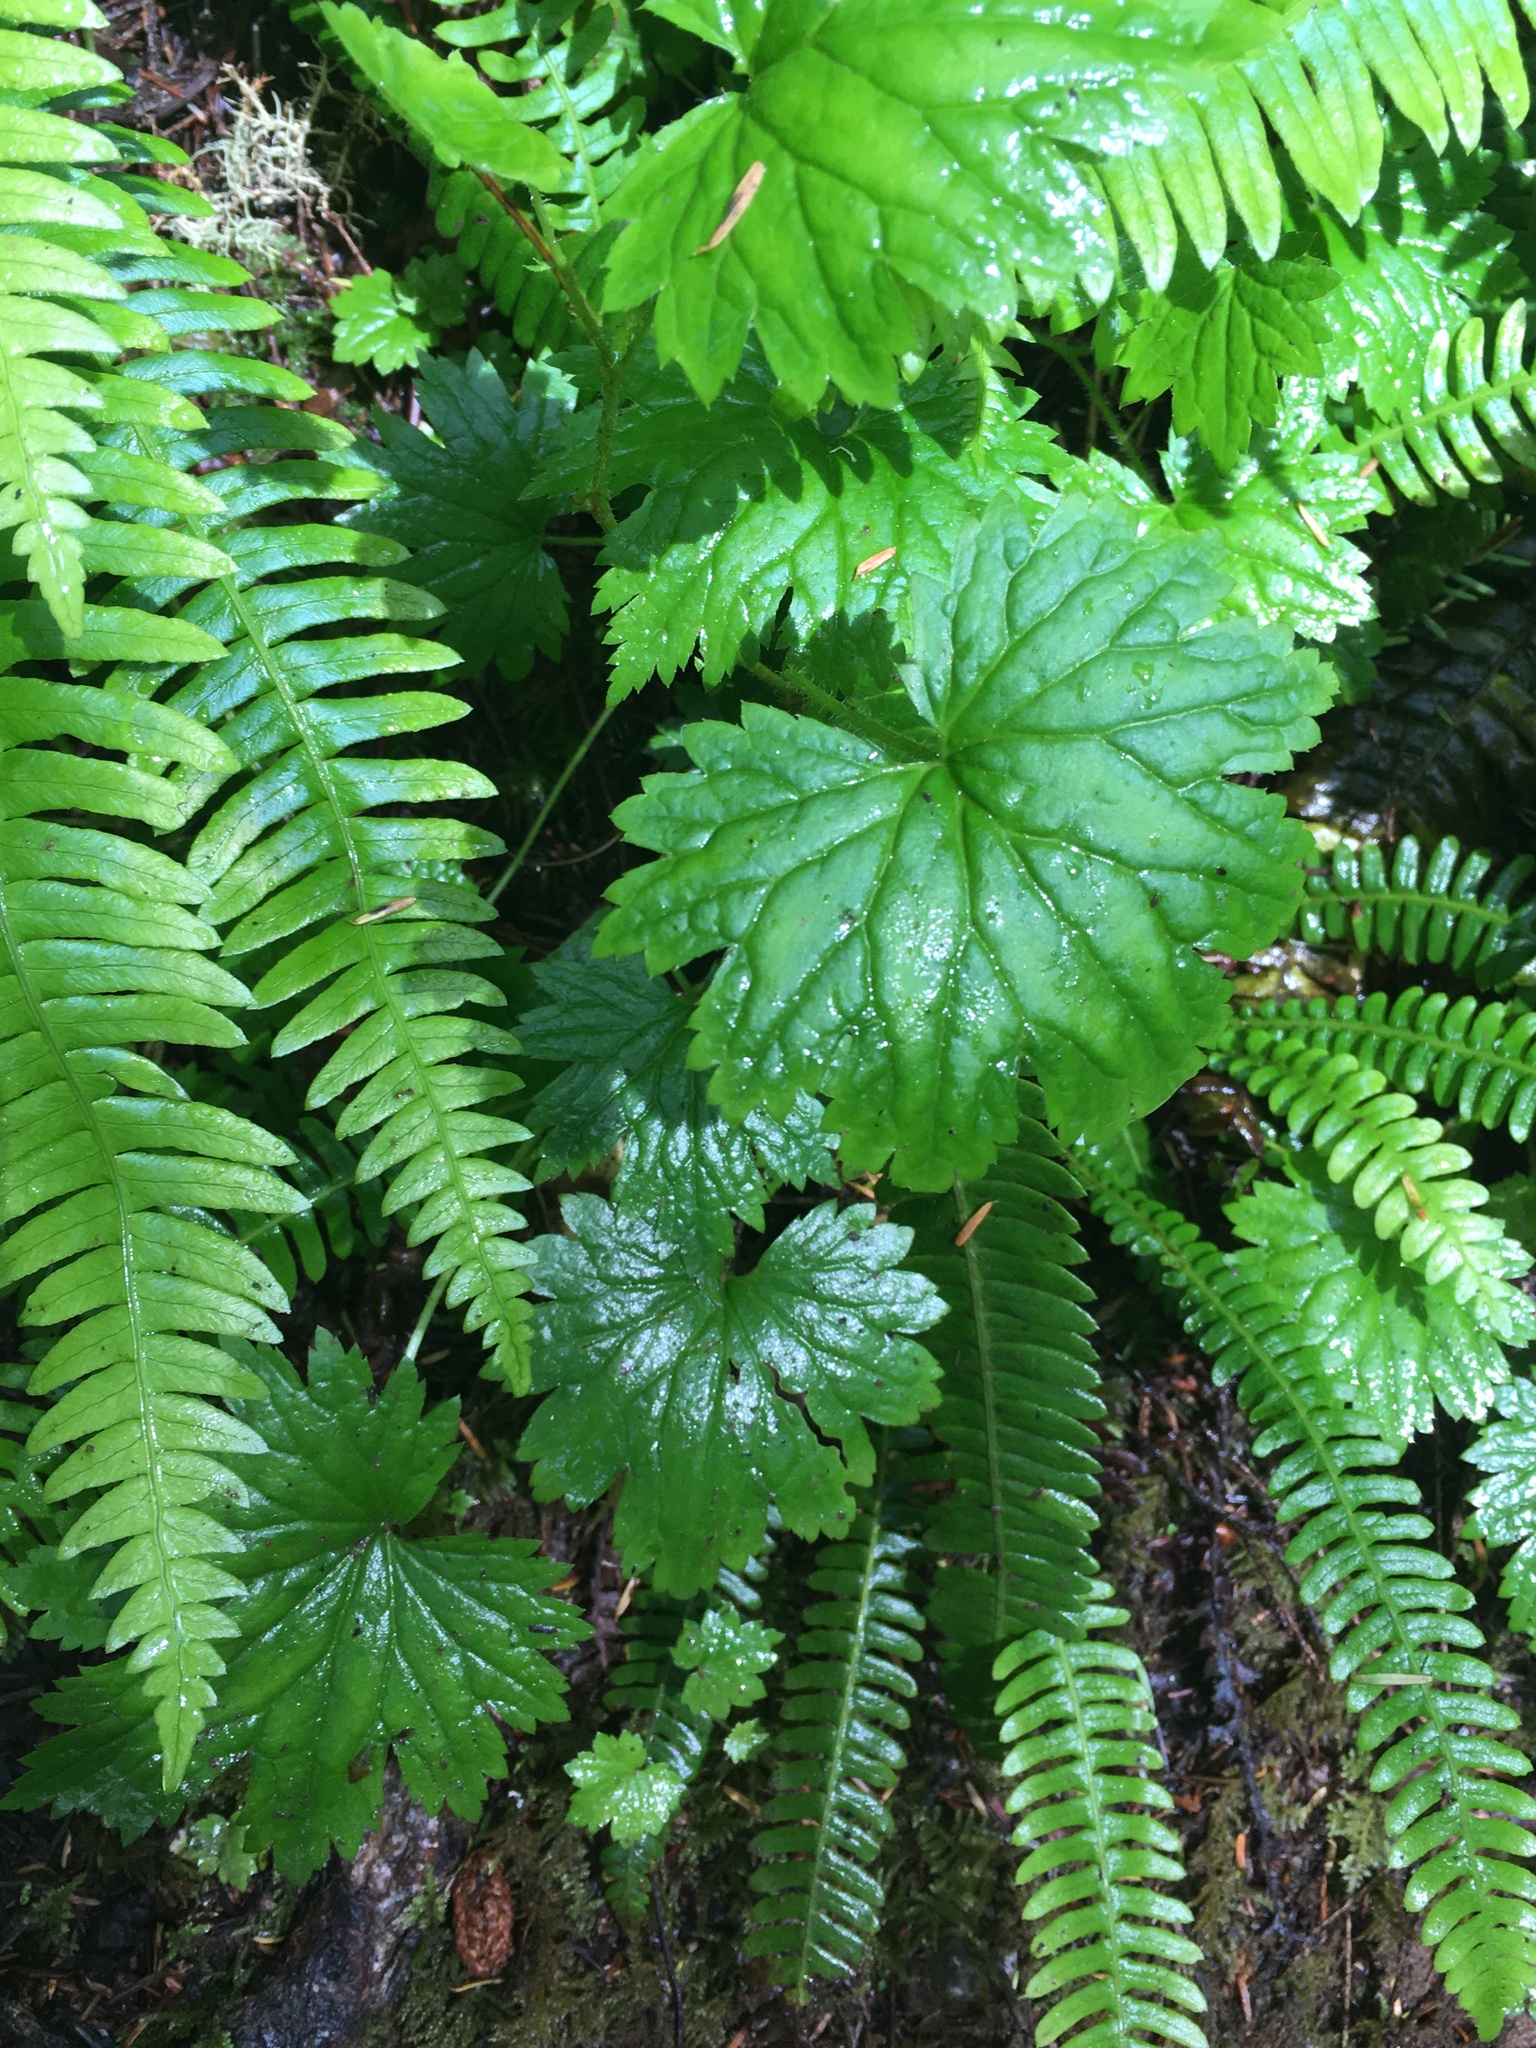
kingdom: Plantae
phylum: Tracheophyta
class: Magnoliopsida
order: Saxifragales
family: Saxifragaceae
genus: Boykinia
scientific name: Boykinia occidentalis
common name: Coast boykinia
